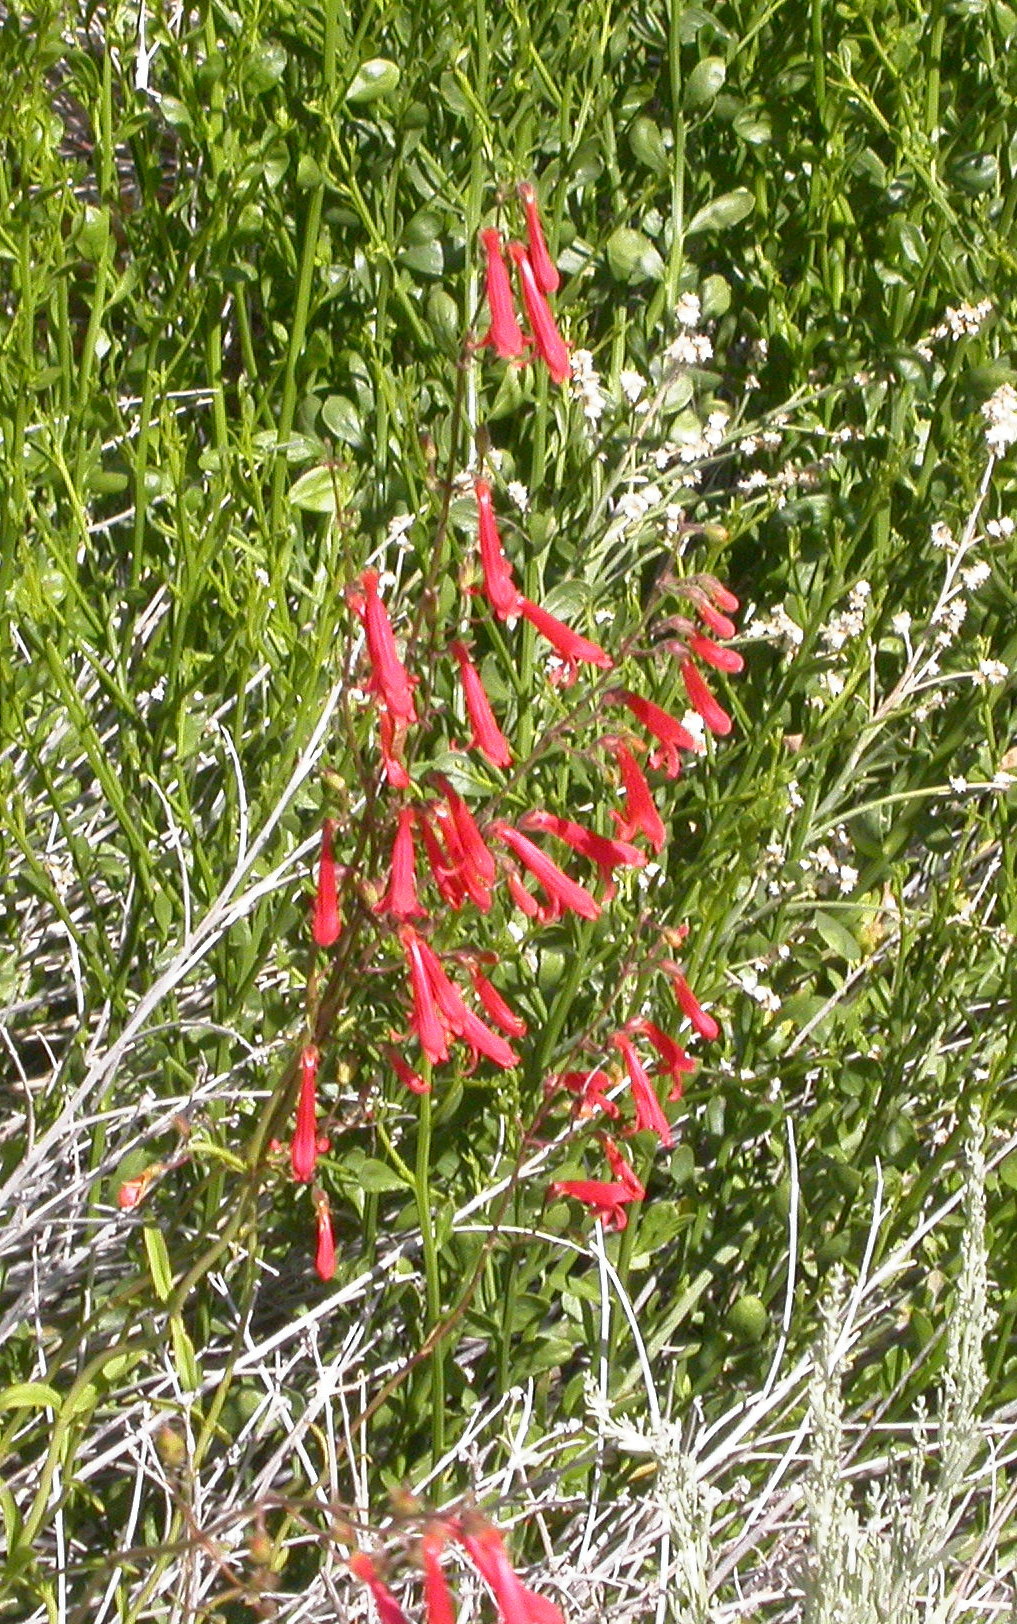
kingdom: Plantae
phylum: Tracheophyta
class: Magnoliopsida
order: Lamiales
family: Plantaginaceae
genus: Penstemon
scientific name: Penstemon eatonii
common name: Eaton's penstemon
